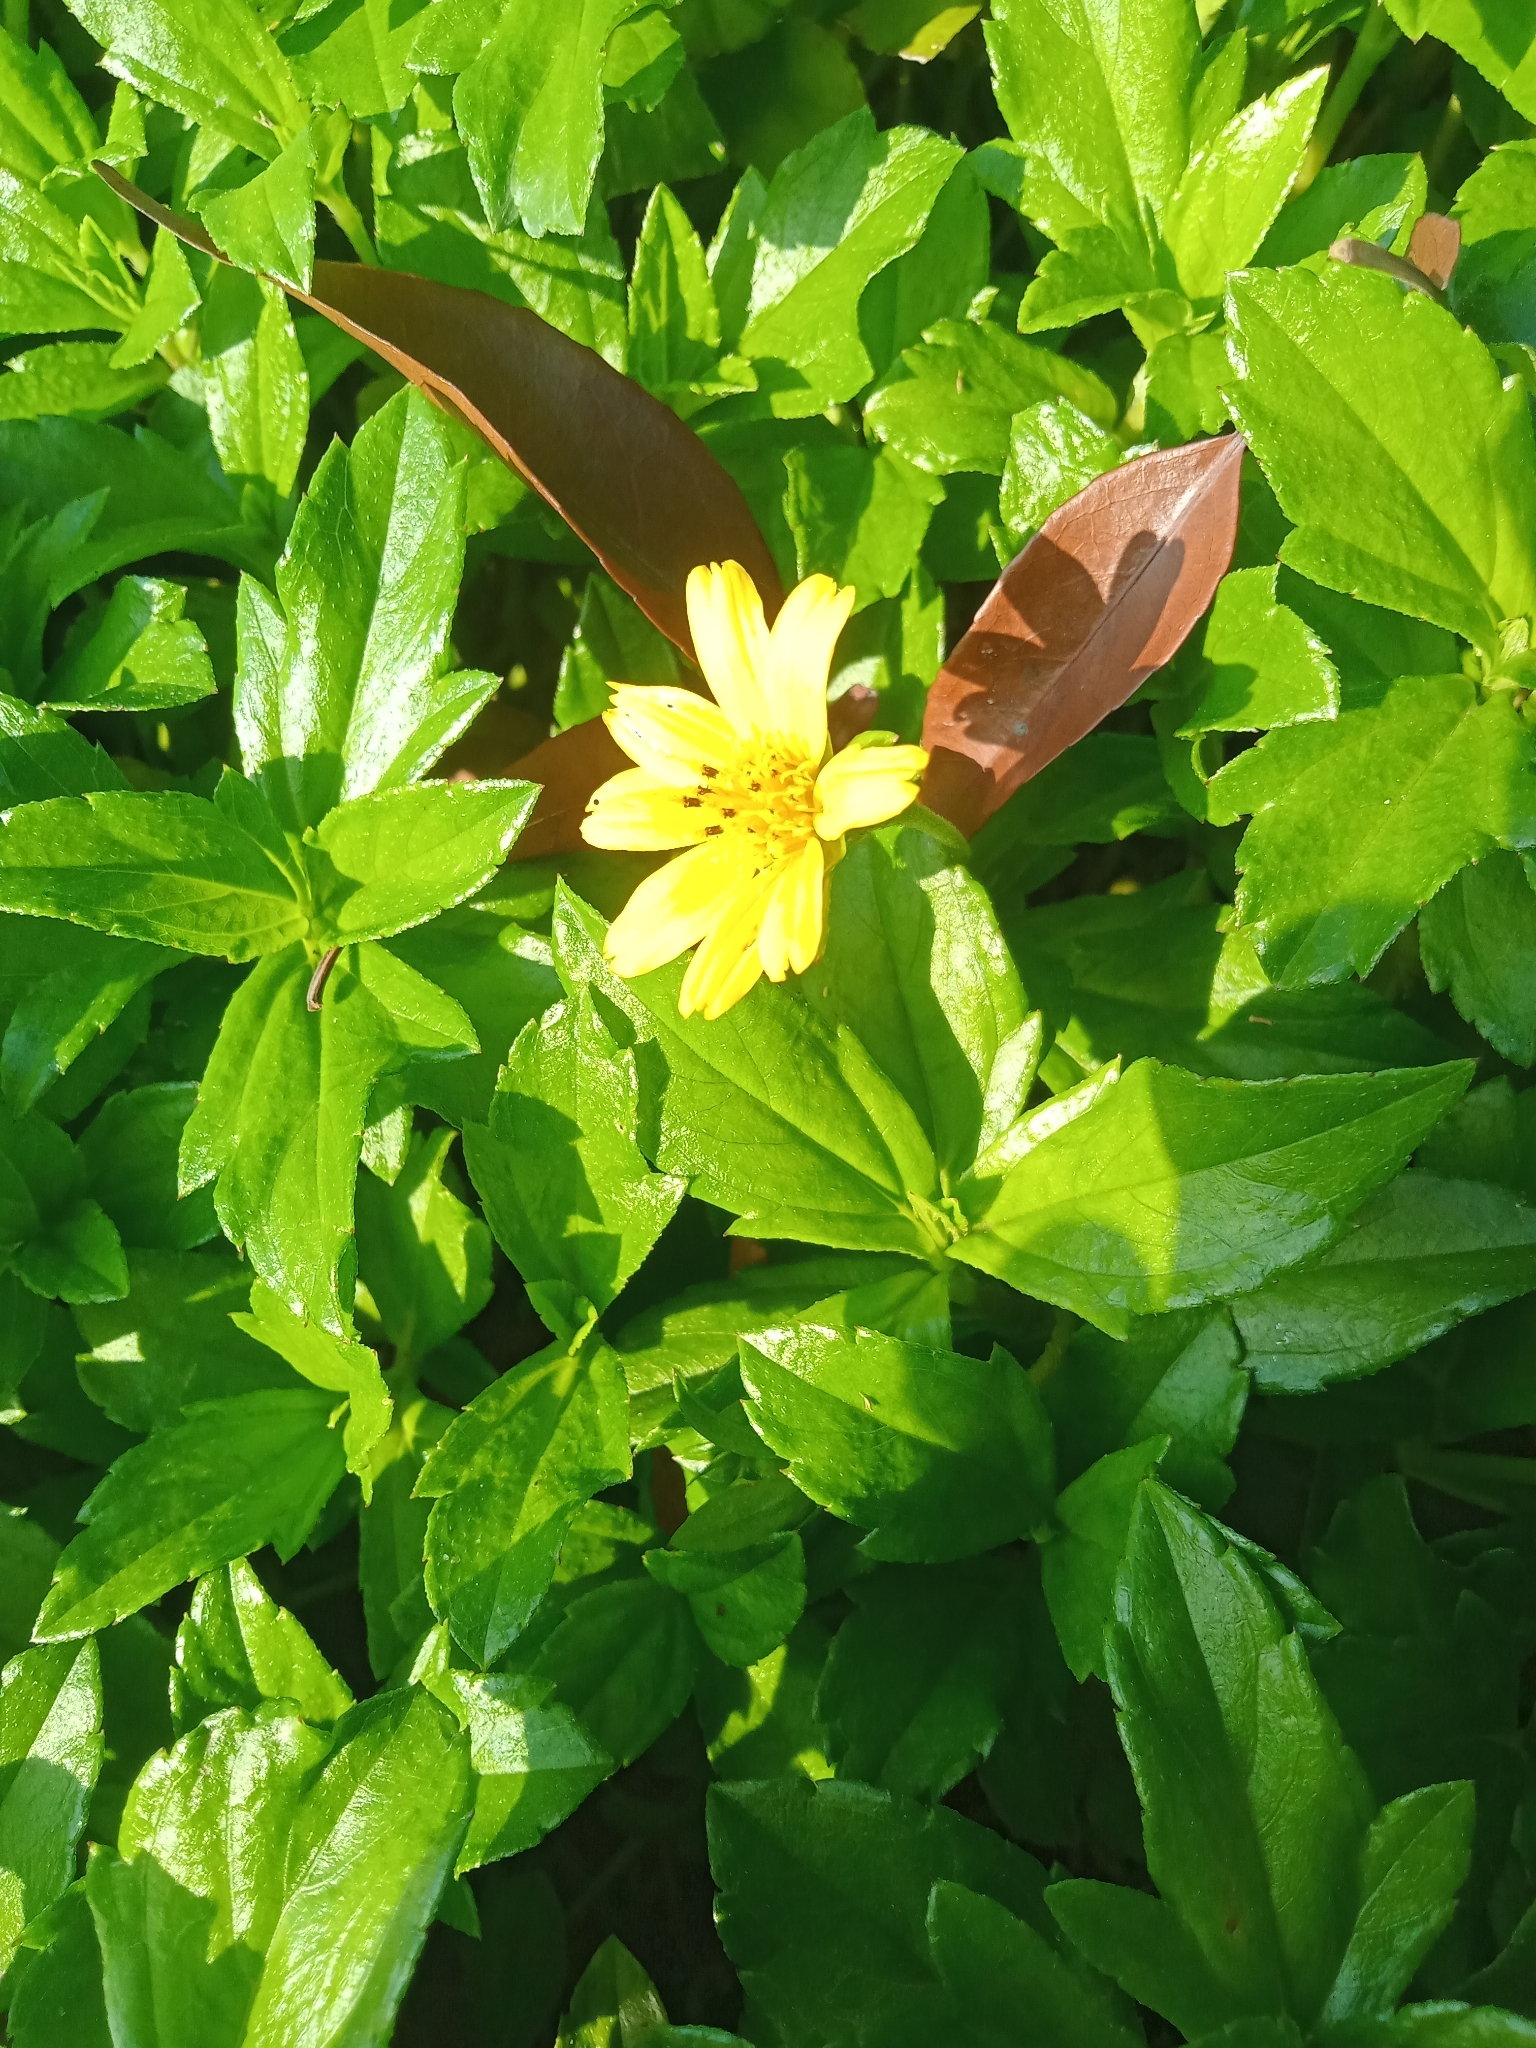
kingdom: Plantae
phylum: Tracheophyta
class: Magnoliopsida
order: Asterales
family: Asteraceae
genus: Sphagneticola
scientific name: Sphagneticola trilobata
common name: Bay biscayne creeping-oxeye
